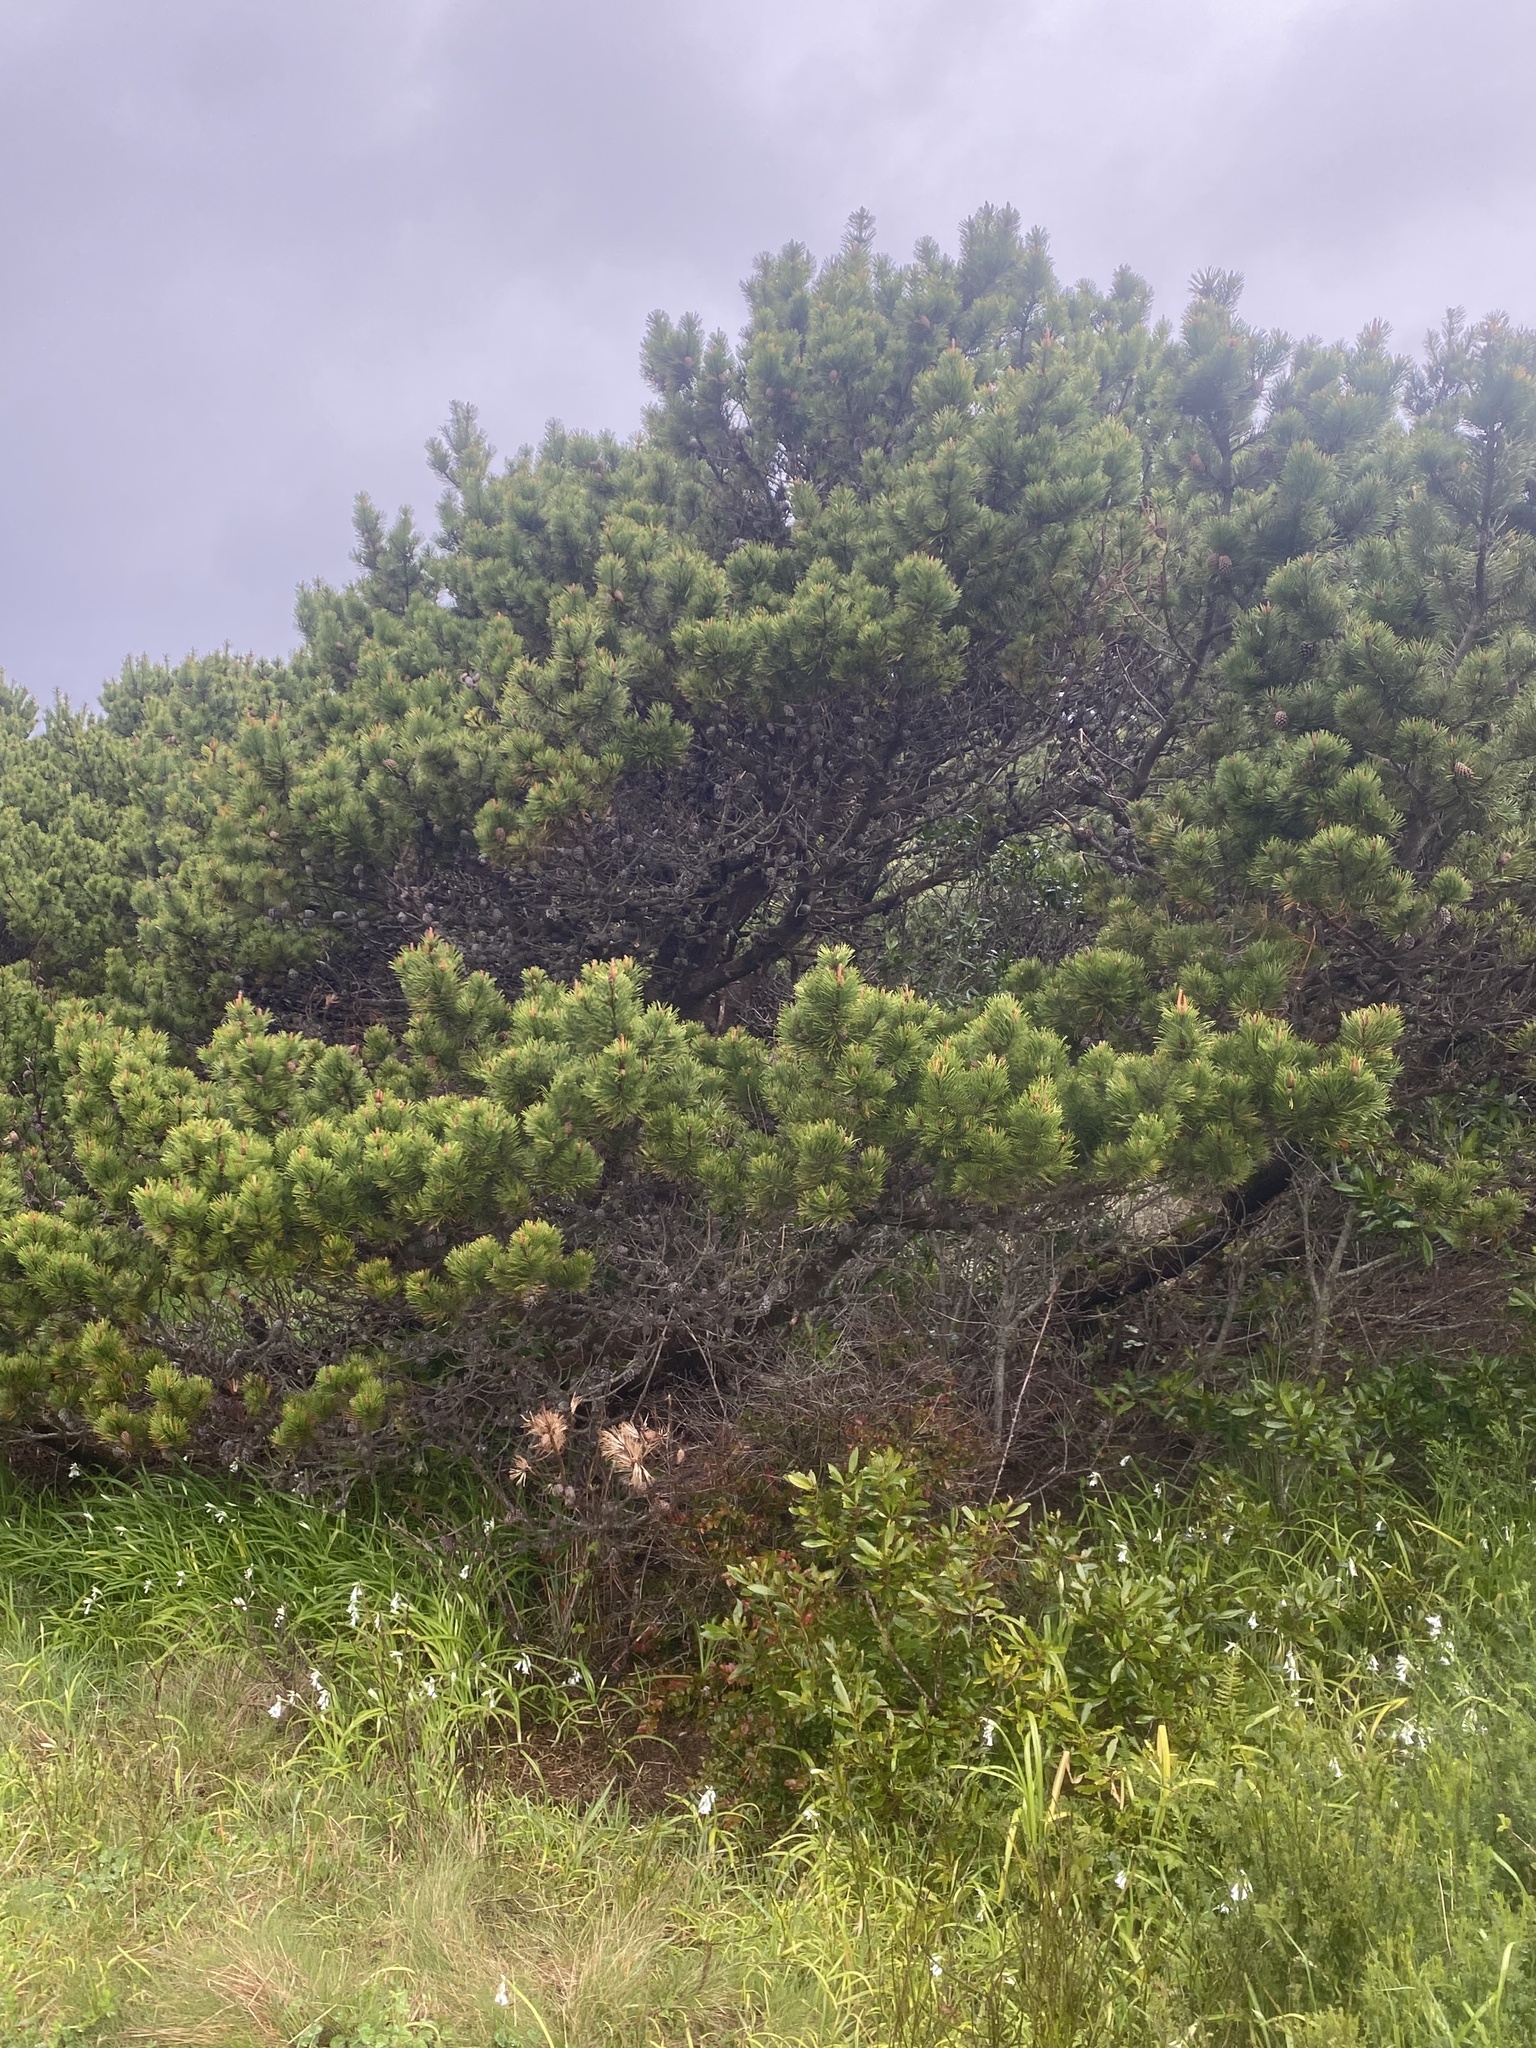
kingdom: Plantae
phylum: Tracheophyta
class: Pinopsida
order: Pinales
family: Pinaceae
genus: Pinus
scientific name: Pinus contorta
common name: Lodgepole pine
